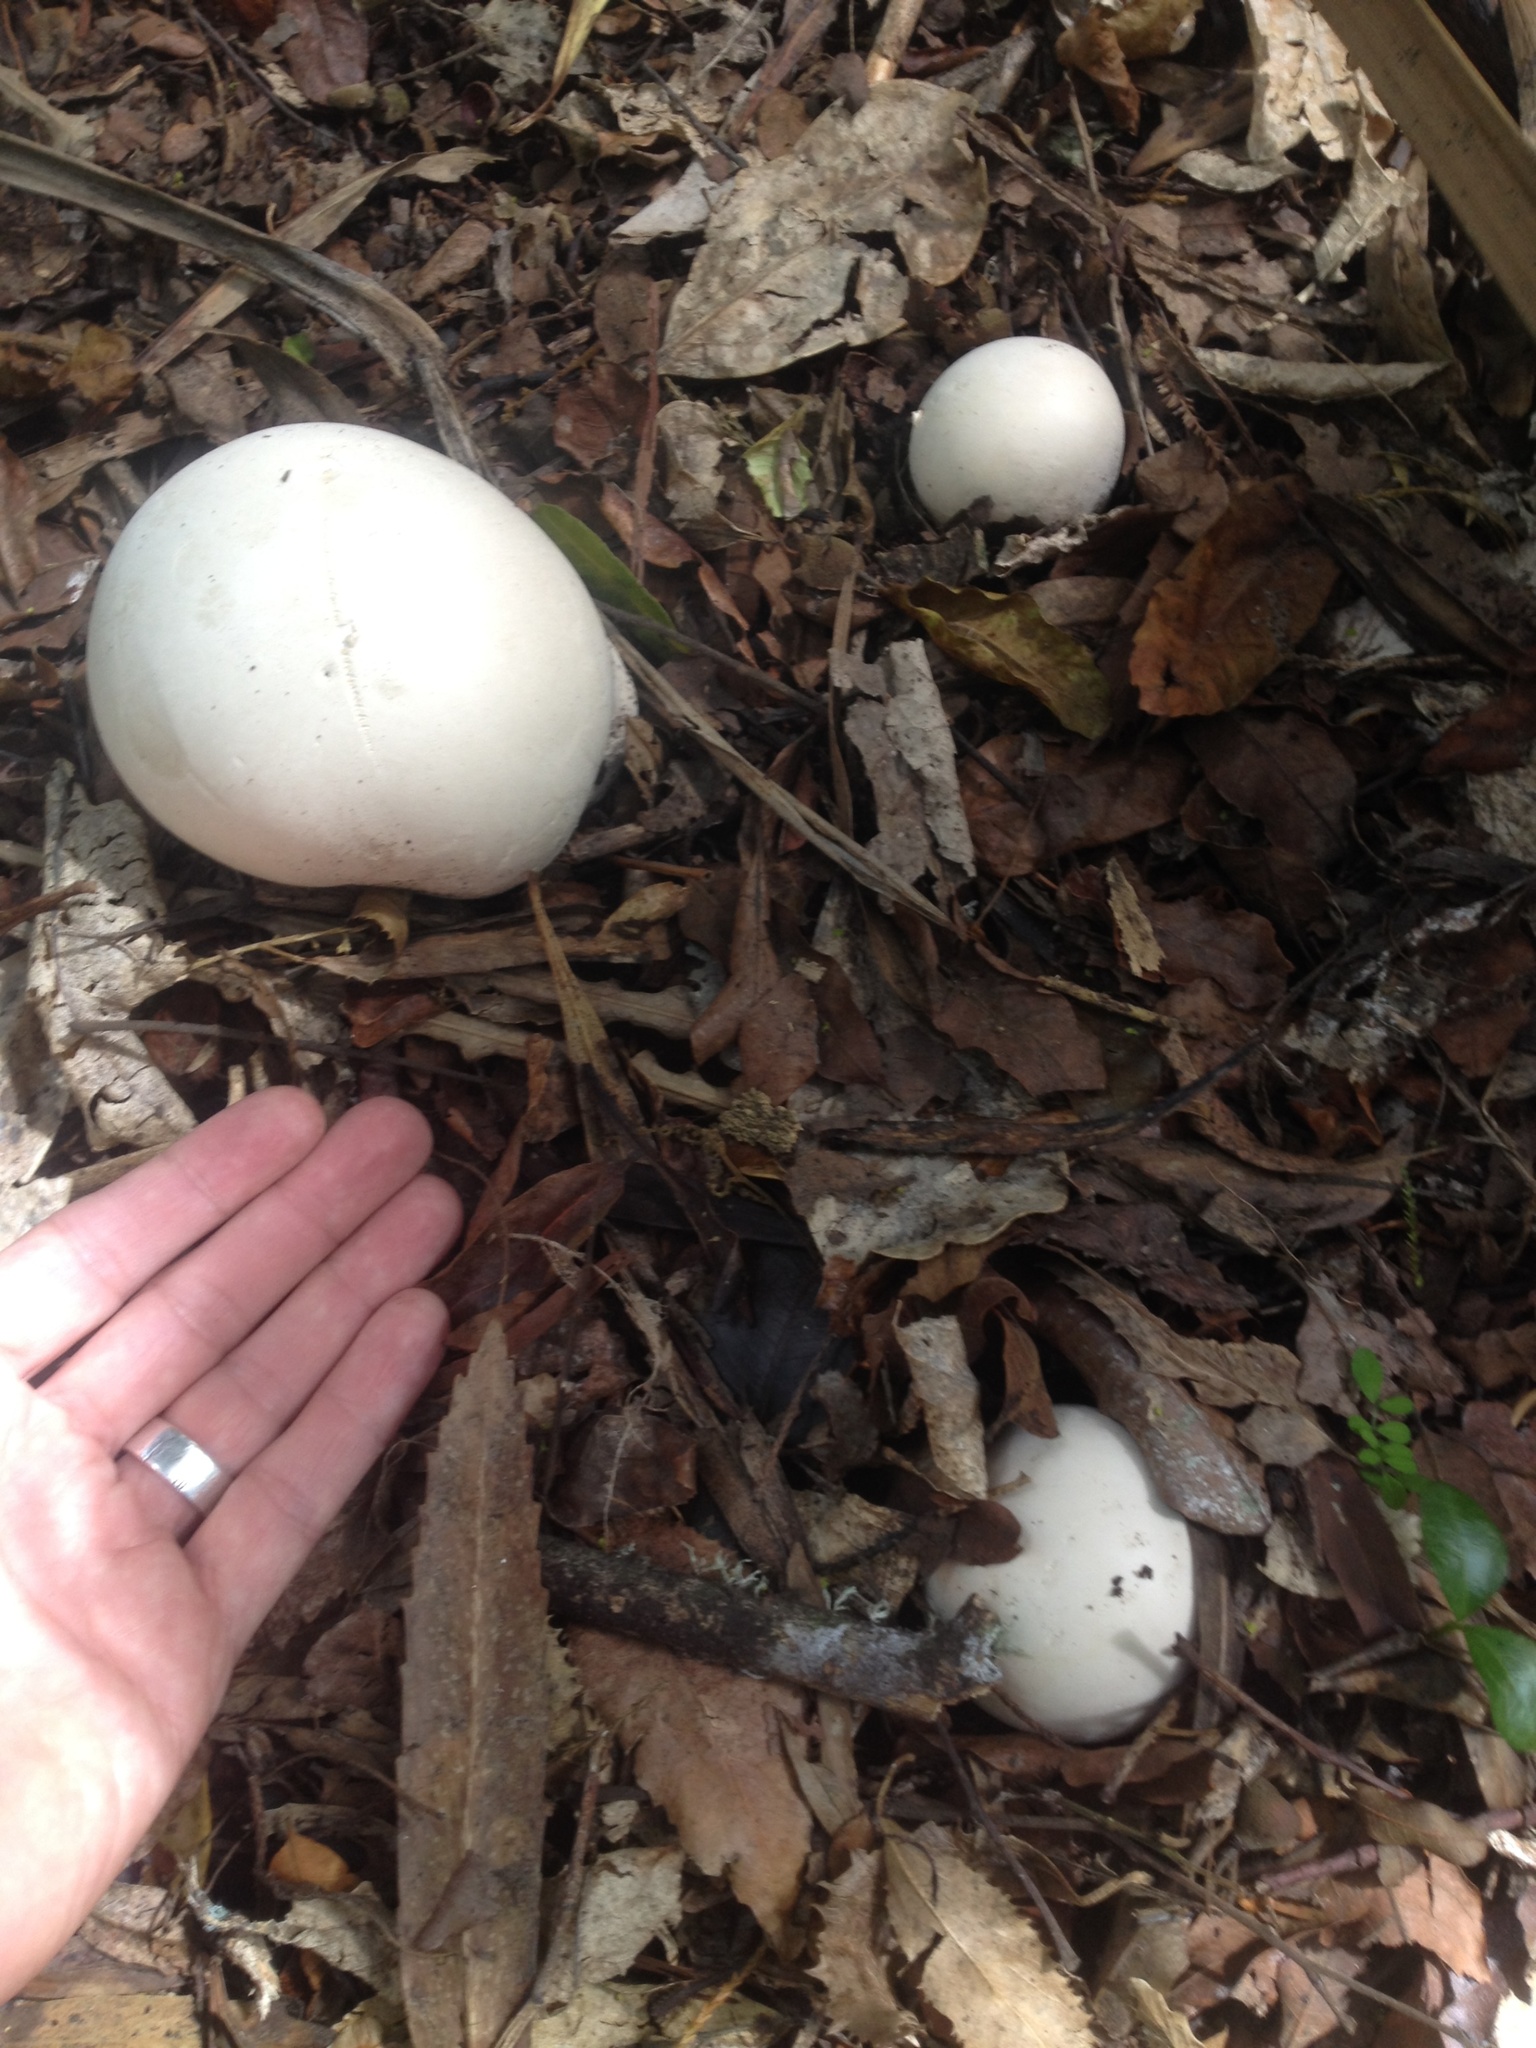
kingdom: Fungi
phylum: Basidiomycota
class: Agaricomycetes
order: Agaricales
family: Lycoperdaceae
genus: Calvatia
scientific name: Calvatia gigantea
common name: Giant puffball
